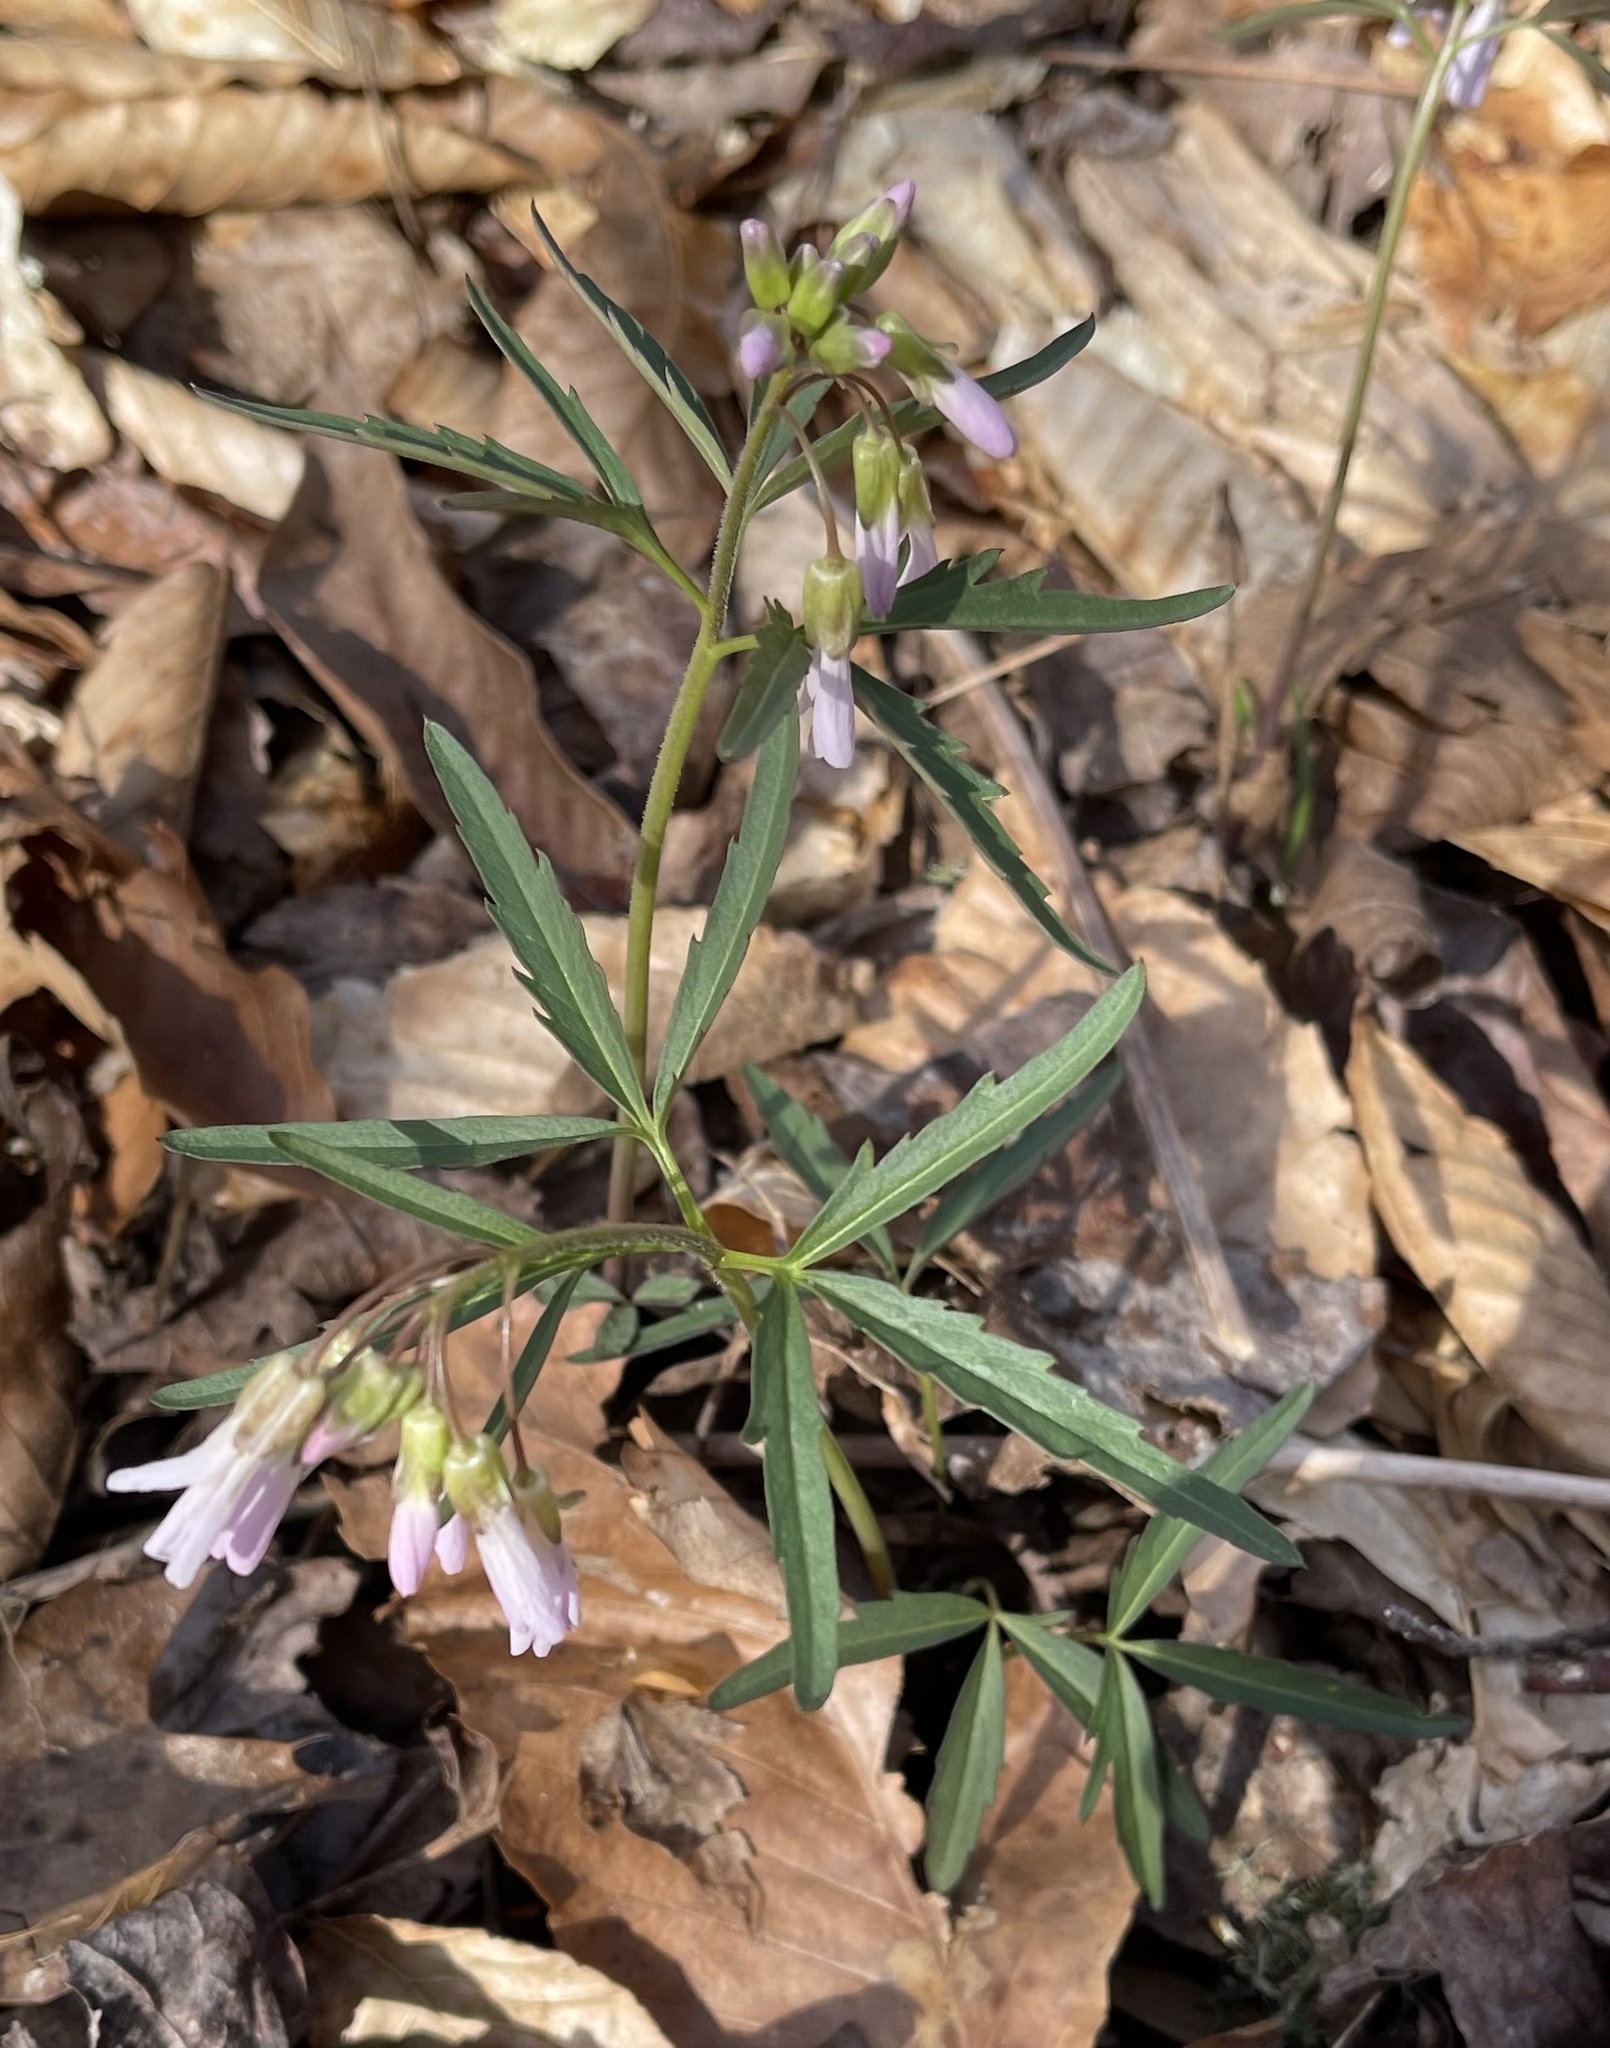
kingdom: Plantae
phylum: Tracheophyta
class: Magnoliopsida
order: Brassicales
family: Brassicaceae
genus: Cardamine
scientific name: Cardamine concatenata
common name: Cut-leaf toothcup
